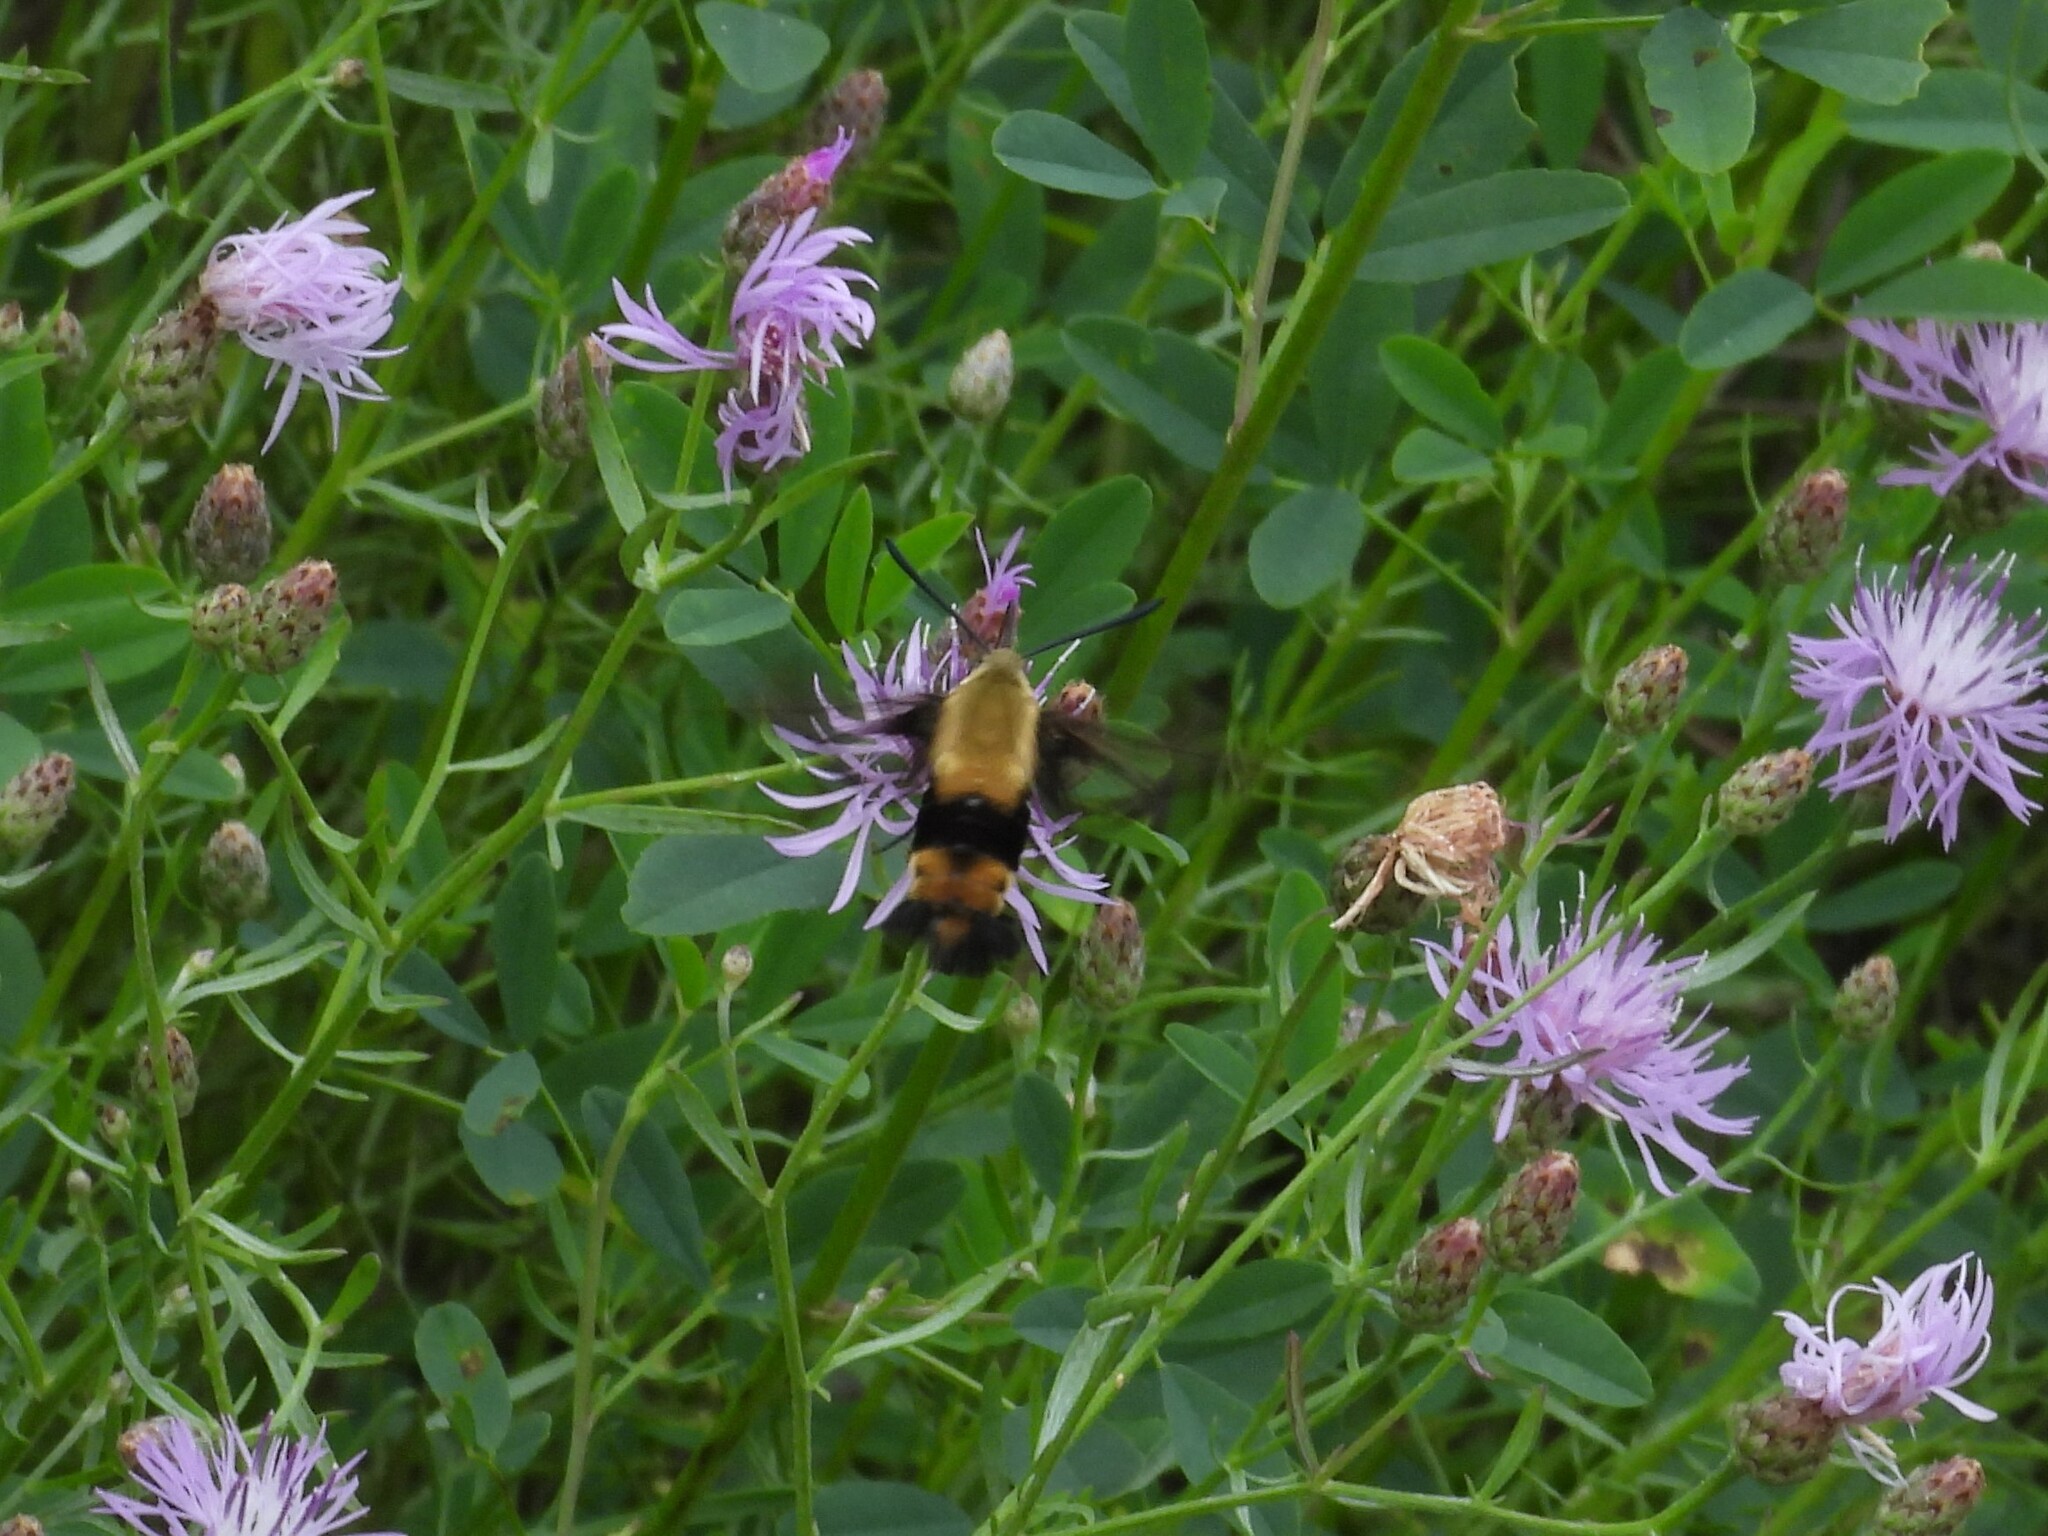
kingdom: Animalia
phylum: Arthropoda
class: Insecta
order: Lepidoptera
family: Sphingidae
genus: Hemaris
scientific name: Hemaris diffinis
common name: Bumblebee moth
